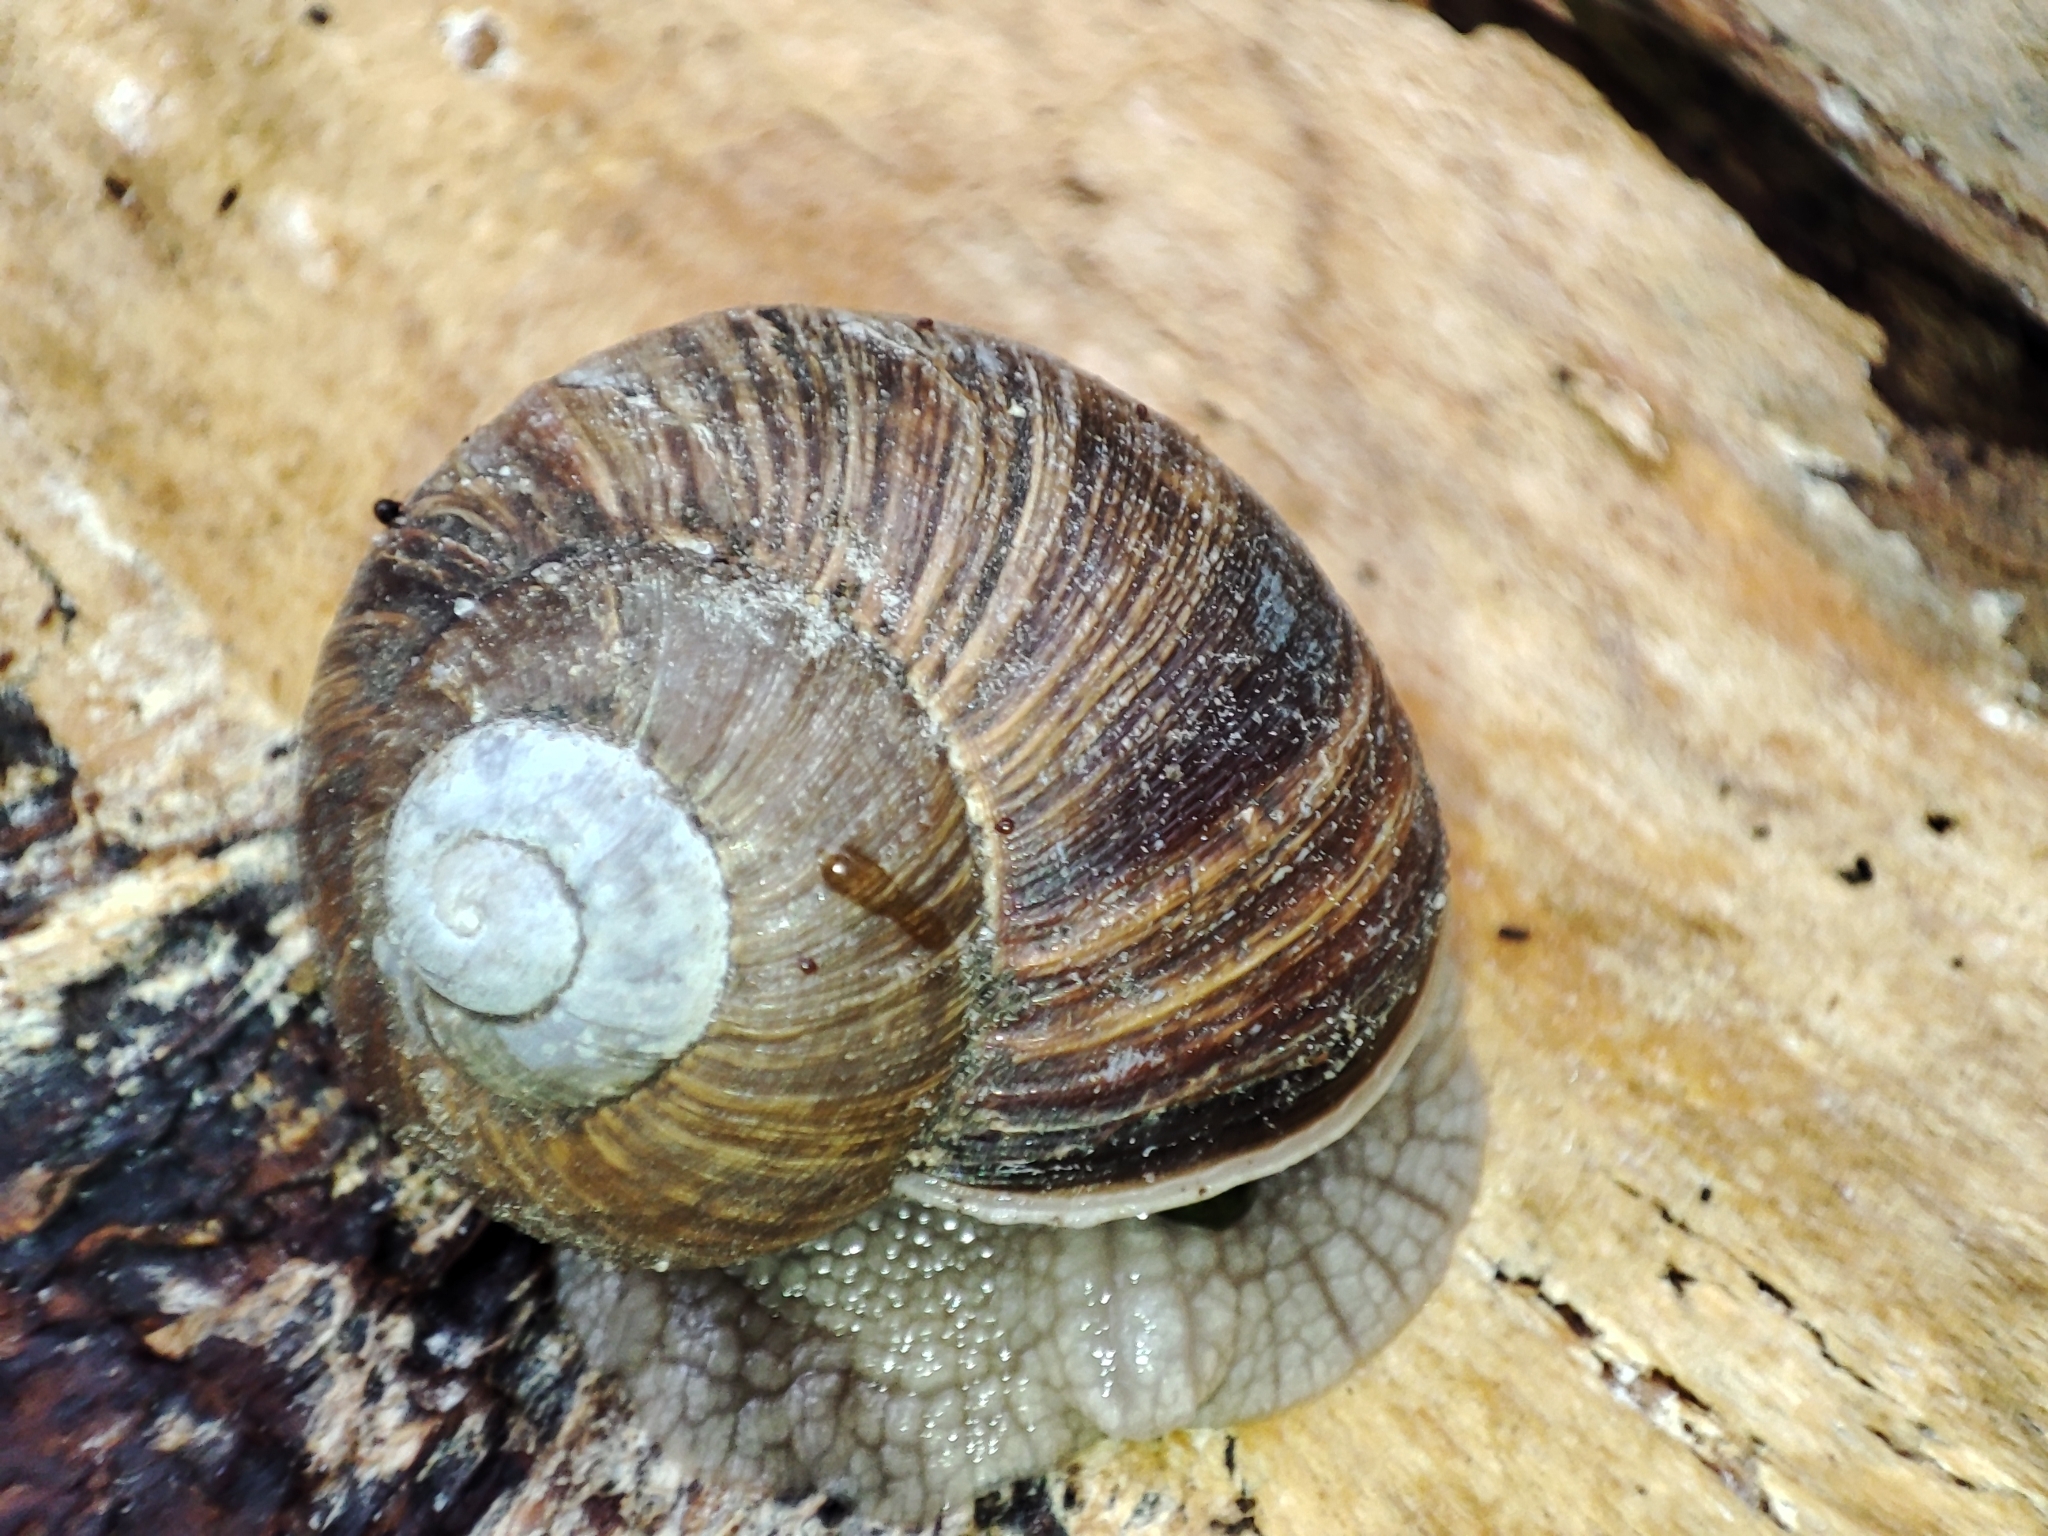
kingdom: Animalia
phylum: Mollusca
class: Gastropoda
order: Stylommatophora
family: Helicidae
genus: Helix
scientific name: Helix pomatia
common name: Roman snail
